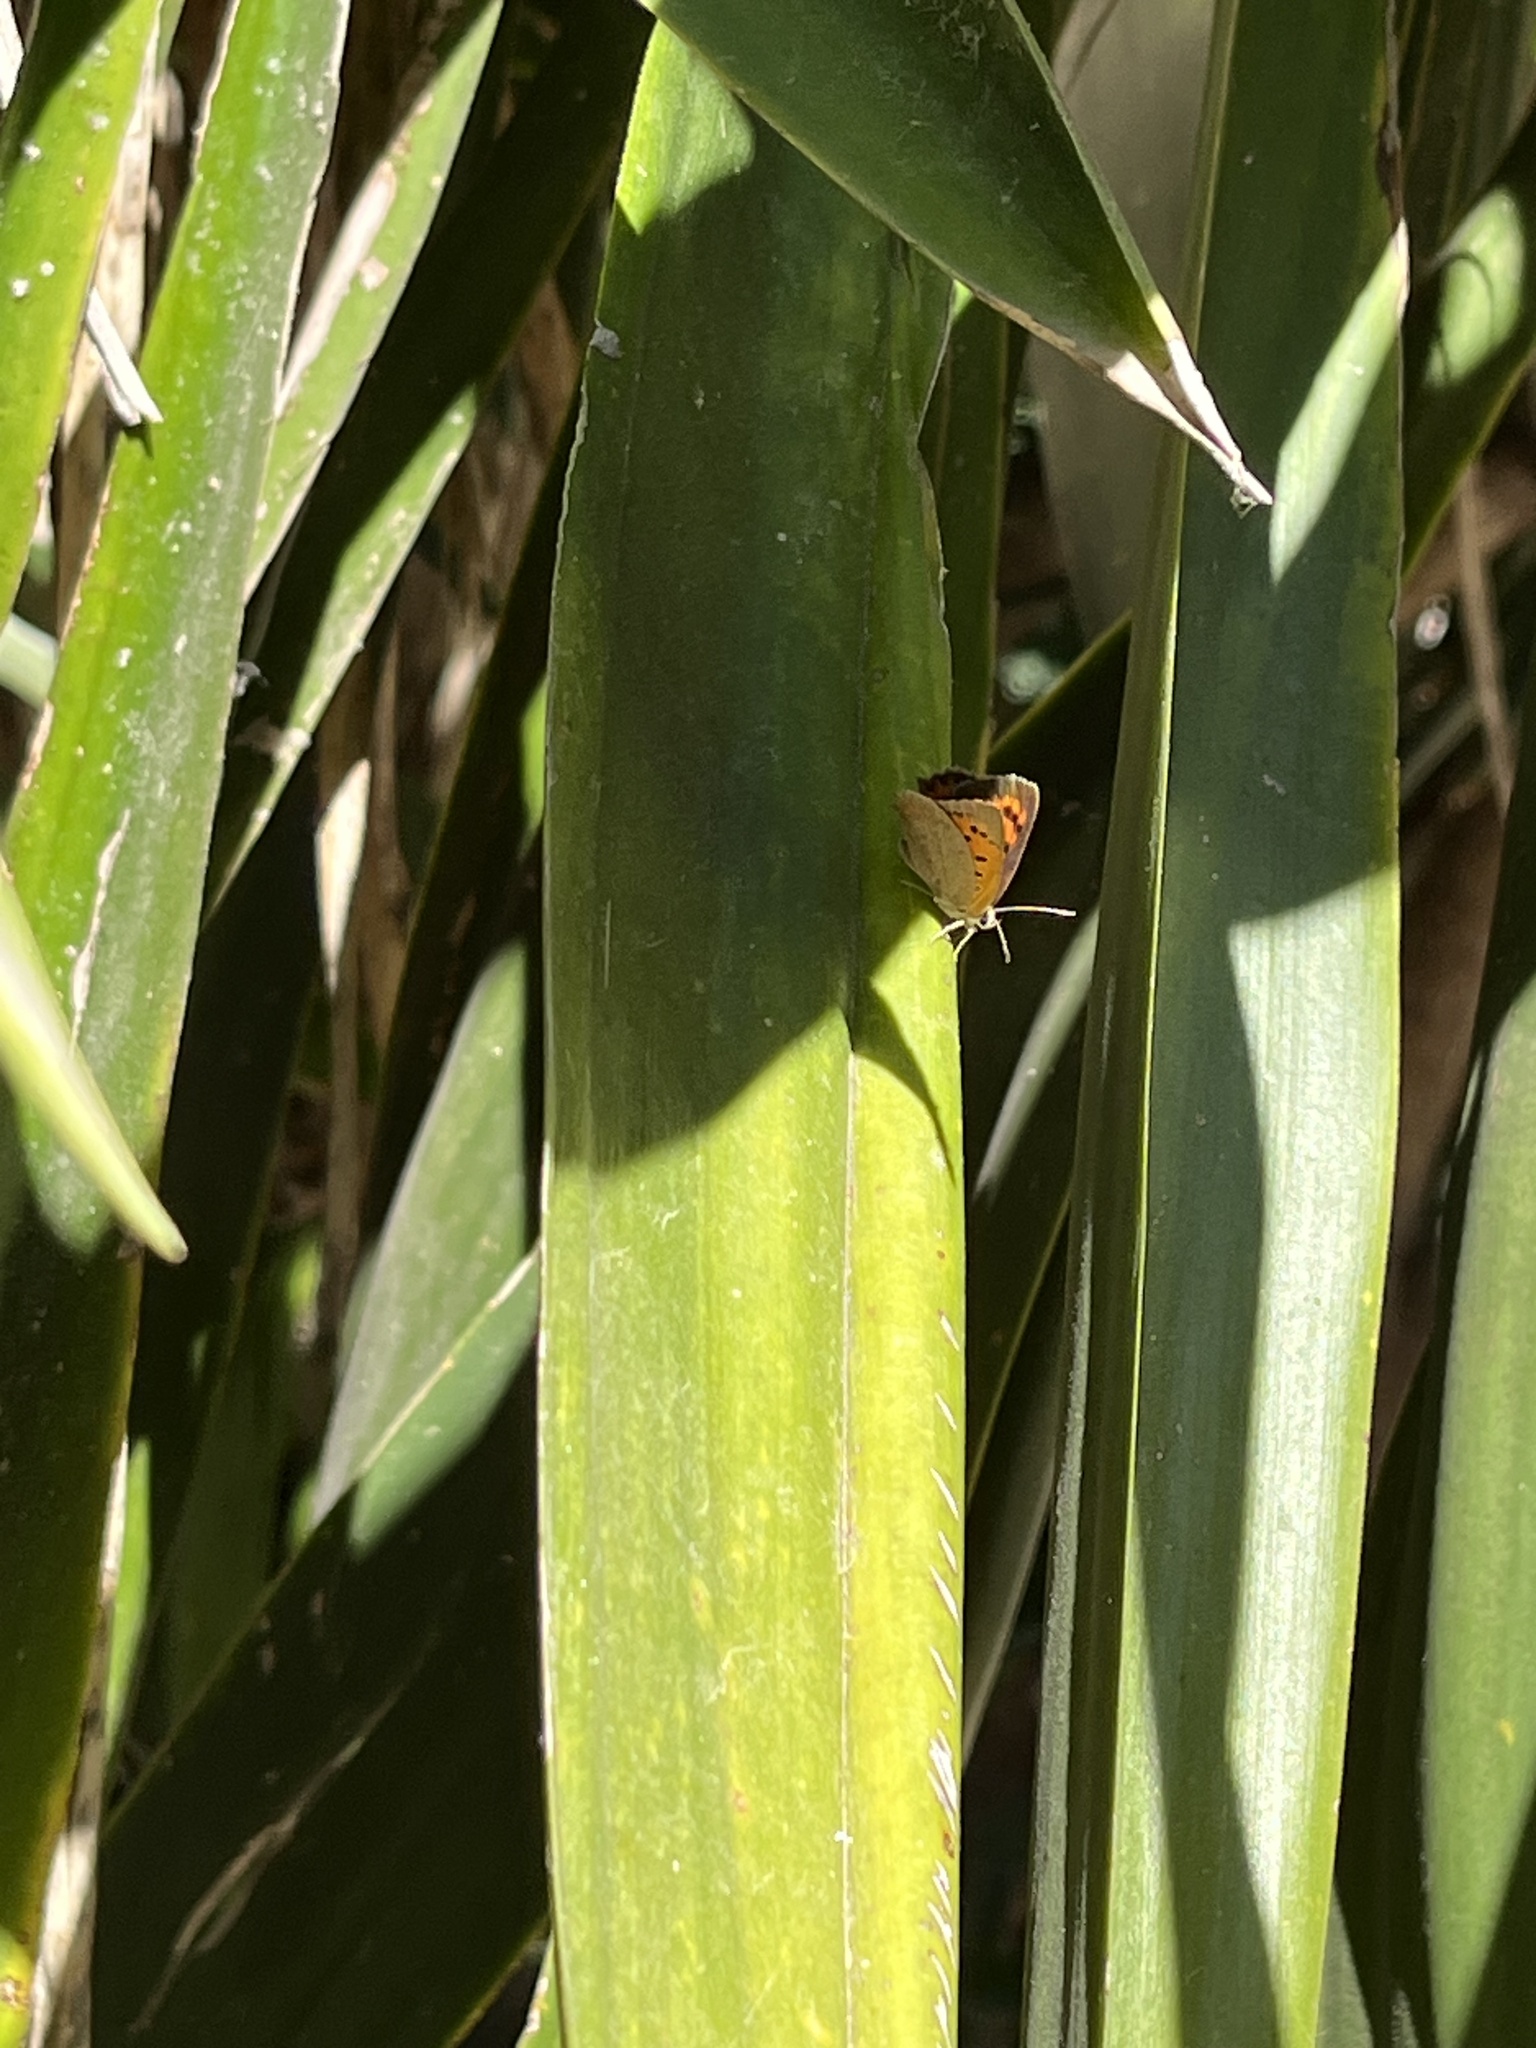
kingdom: Animalia
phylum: Arthropoda
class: Insecta
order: Lepidoptera
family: Lycaenidae
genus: Lycaena
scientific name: Lycaena phlaeas
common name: Small copper
